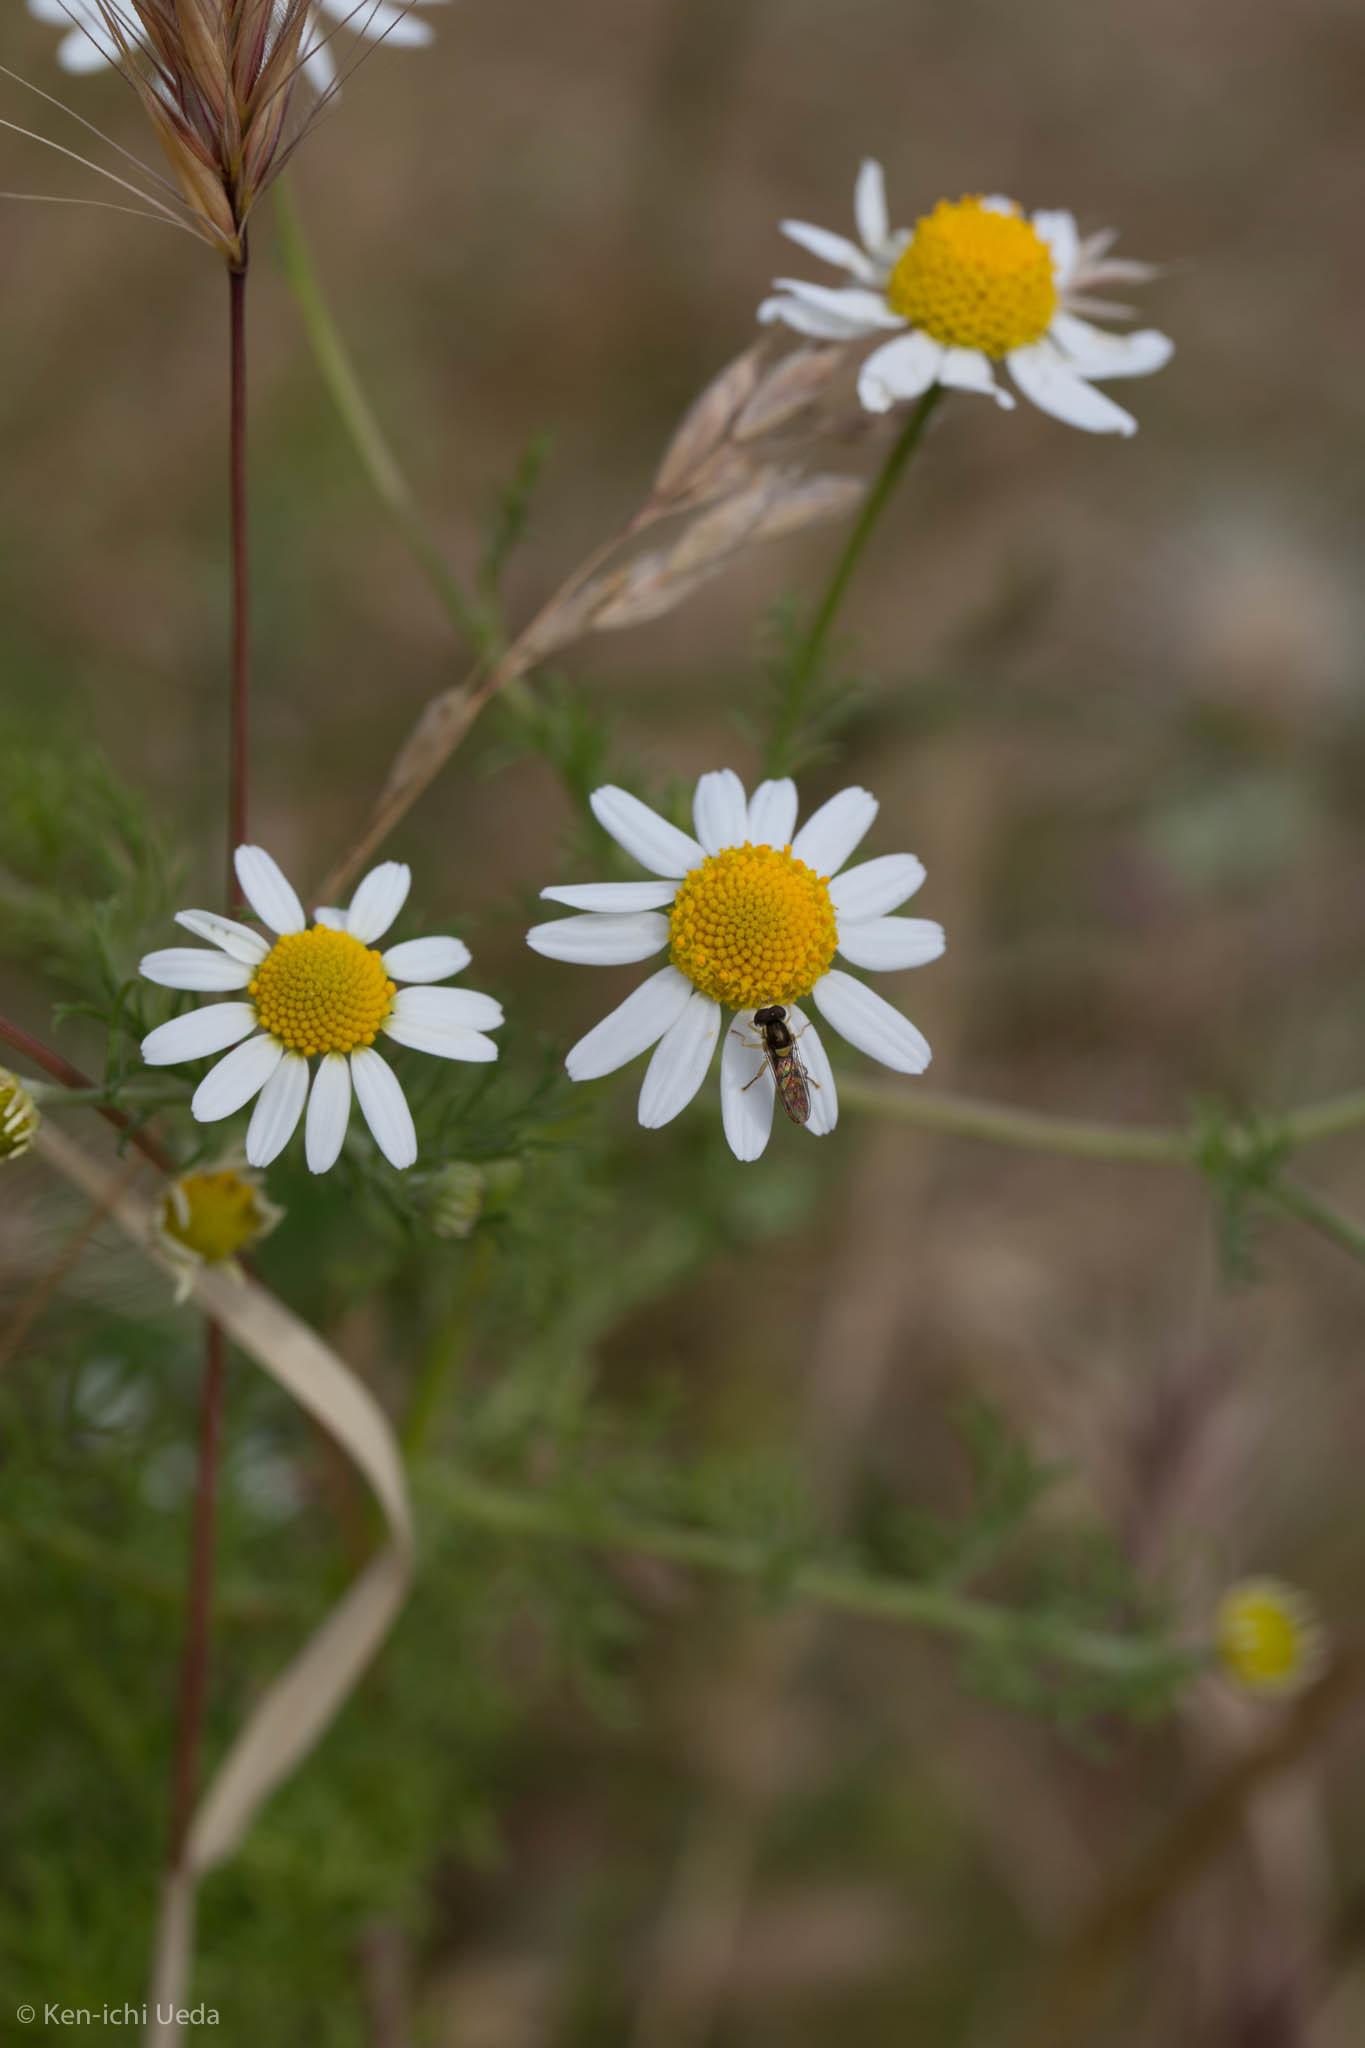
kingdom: Plantae
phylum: Tracheophyta
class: Magnoliopsida
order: Asterales
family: Asteraceae
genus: Anthemis
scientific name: Anthemis cotula
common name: Stinking chamomile
